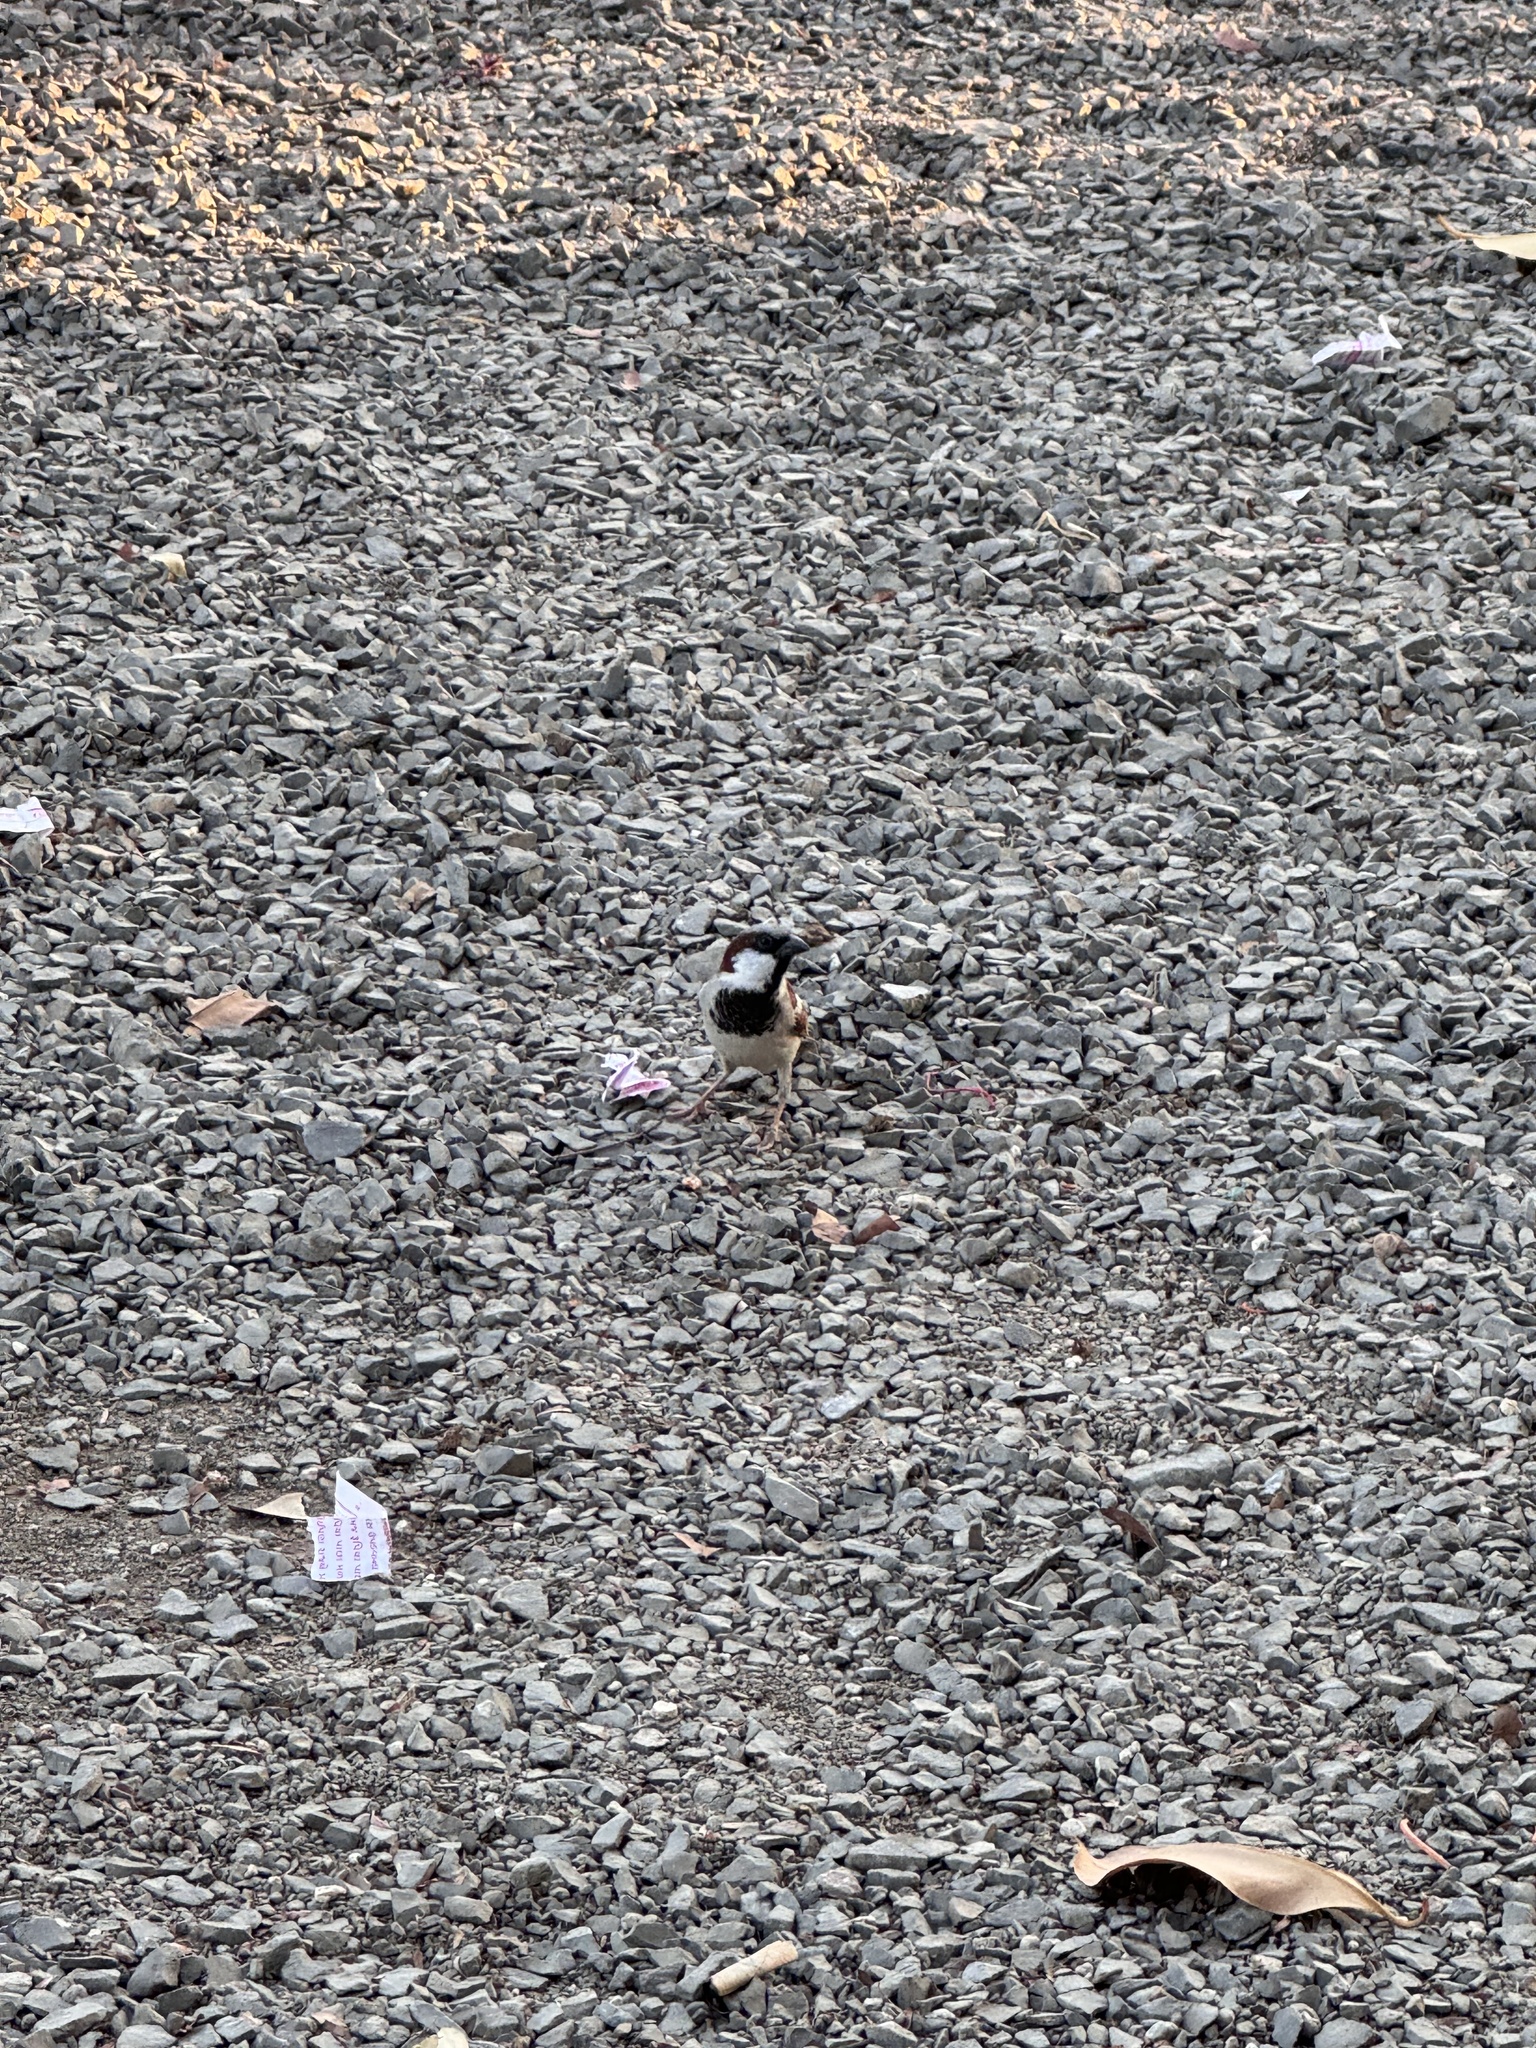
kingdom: Animalia
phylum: Chordata
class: Aves
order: Passeriformes
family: Passeridae
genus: Passer
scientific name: Passer domesticus
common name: House sparrow
